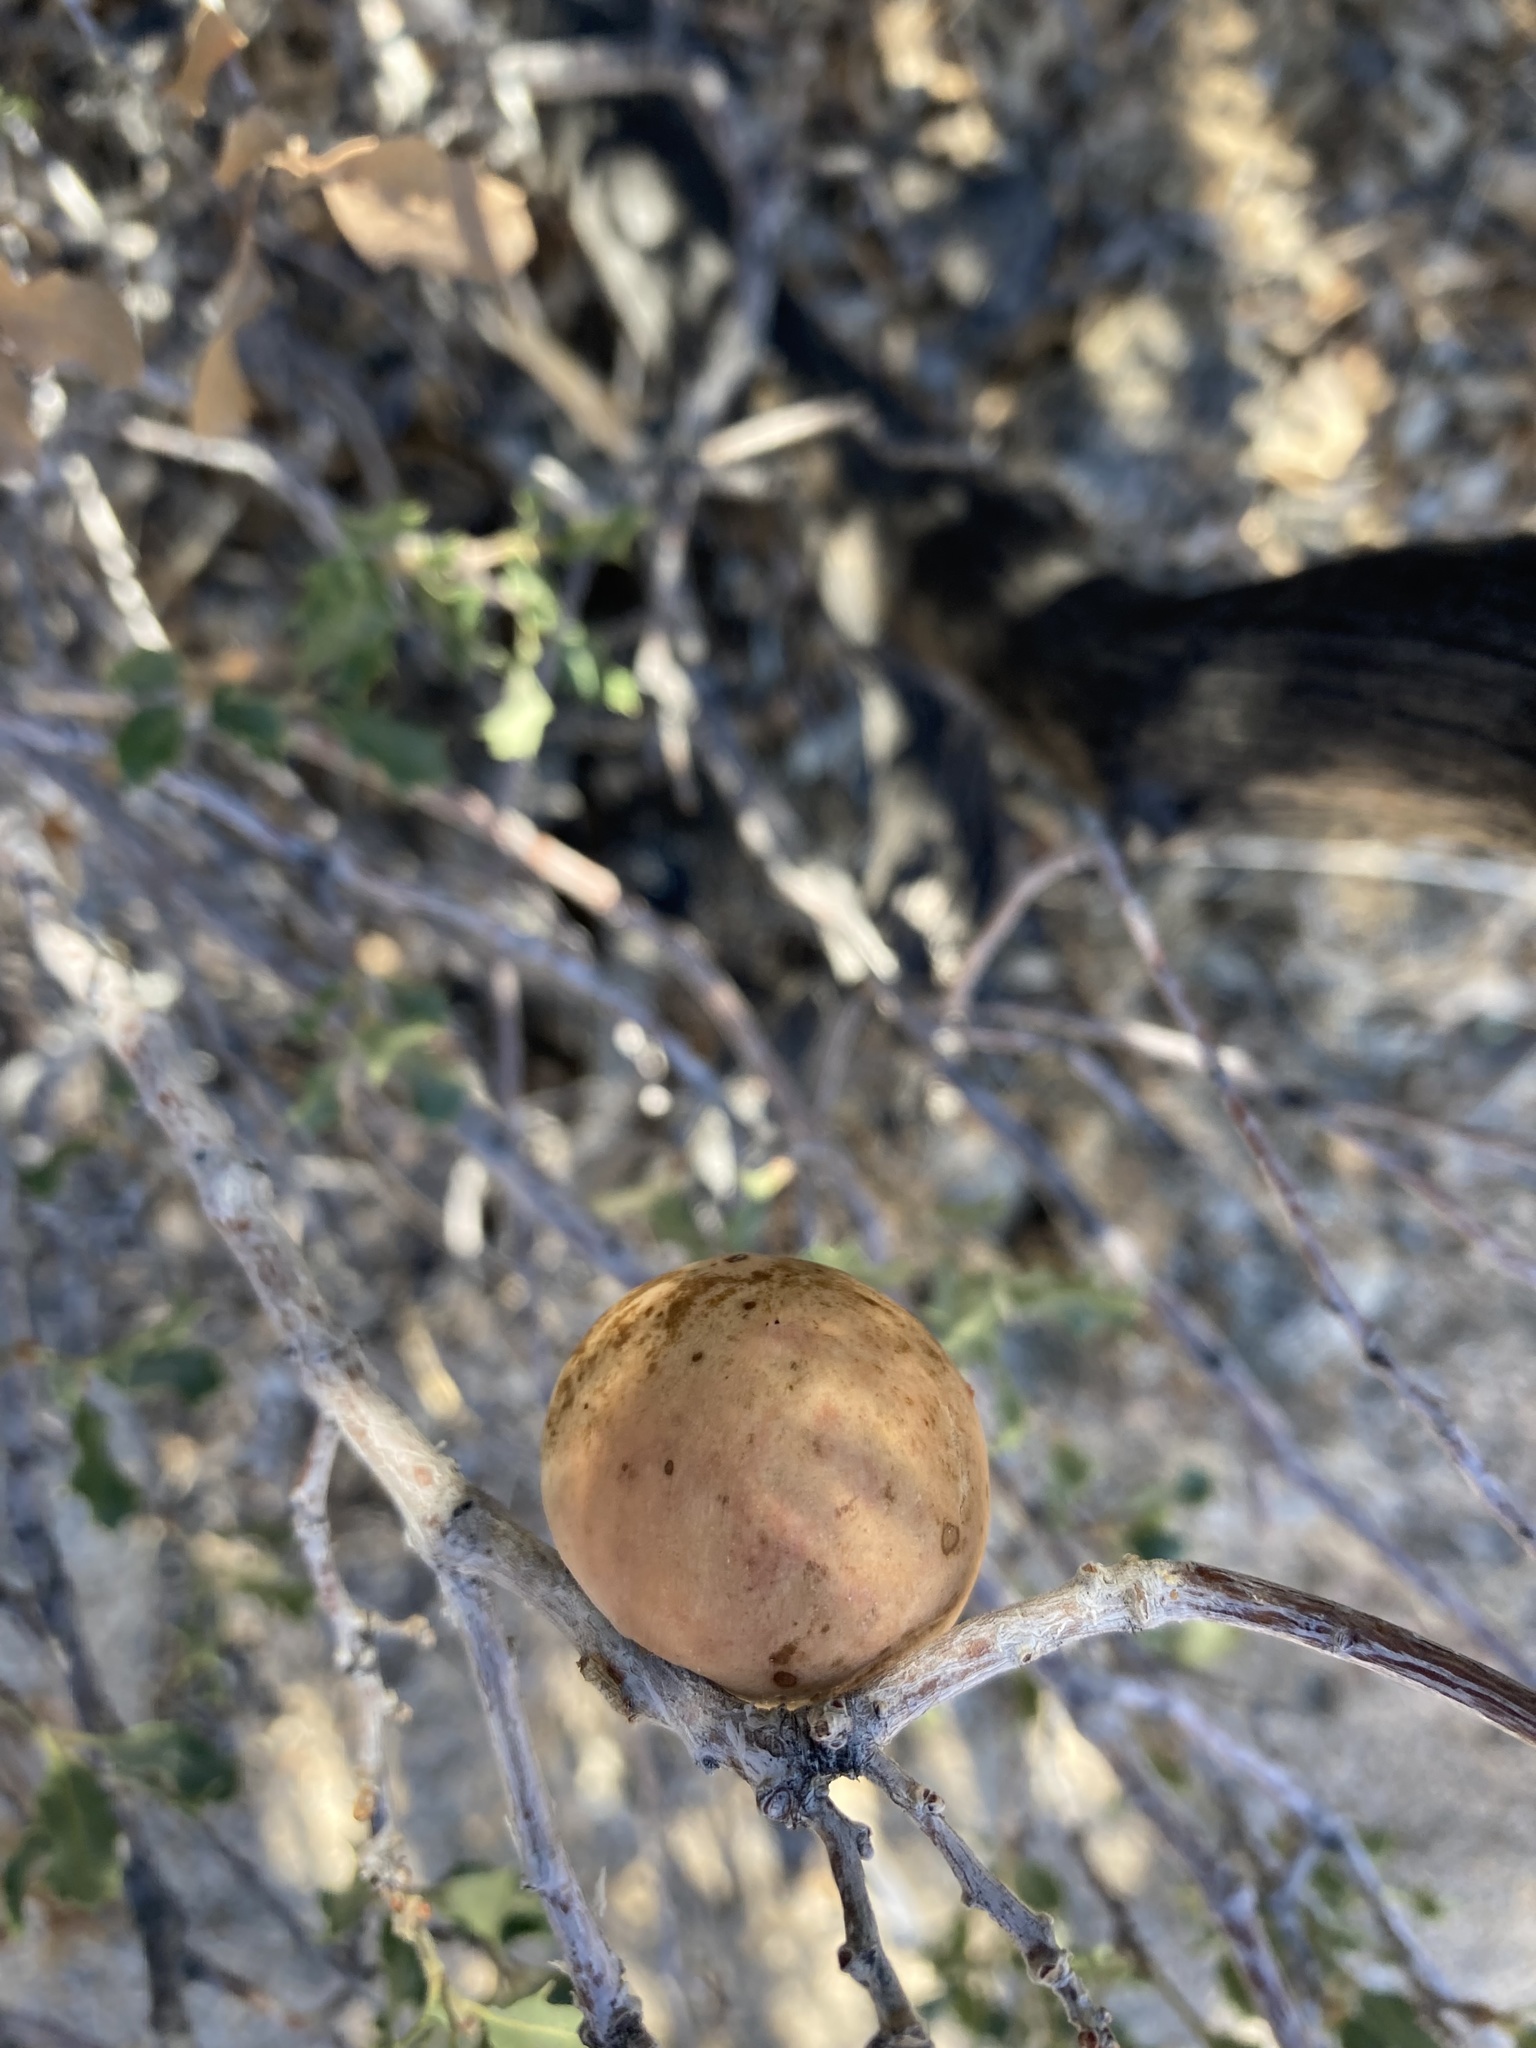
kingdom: Animalia
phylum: Arthropoda
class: Insecta
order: Hymenoptera
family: Cynipidae
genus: Amphibolips
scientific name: Amphibolips quercuspomiformis
